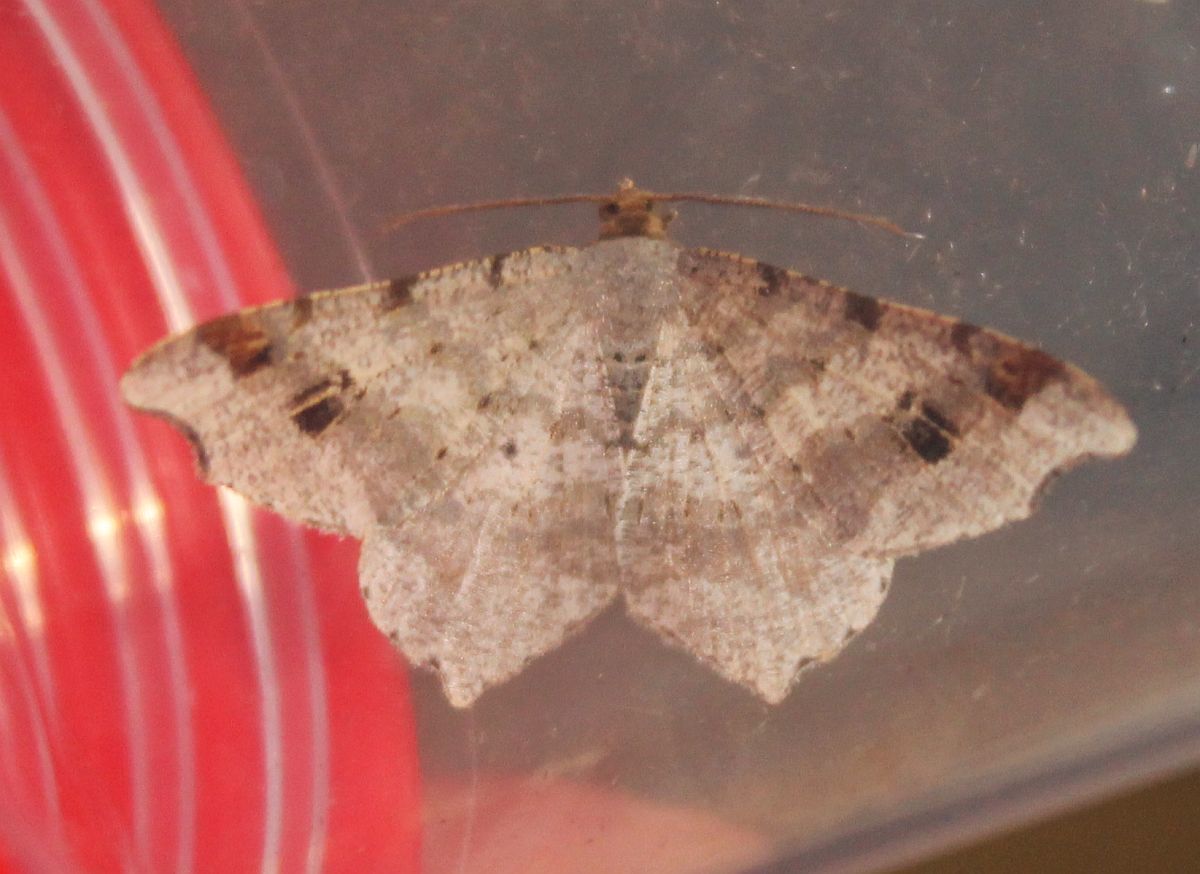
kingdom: Animalia
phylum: Arthropoda
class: Insecta
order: Lepidoptera
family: Geometridae
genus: Macaria
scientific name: Macaria alternata
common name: Sharp-angled peacock
